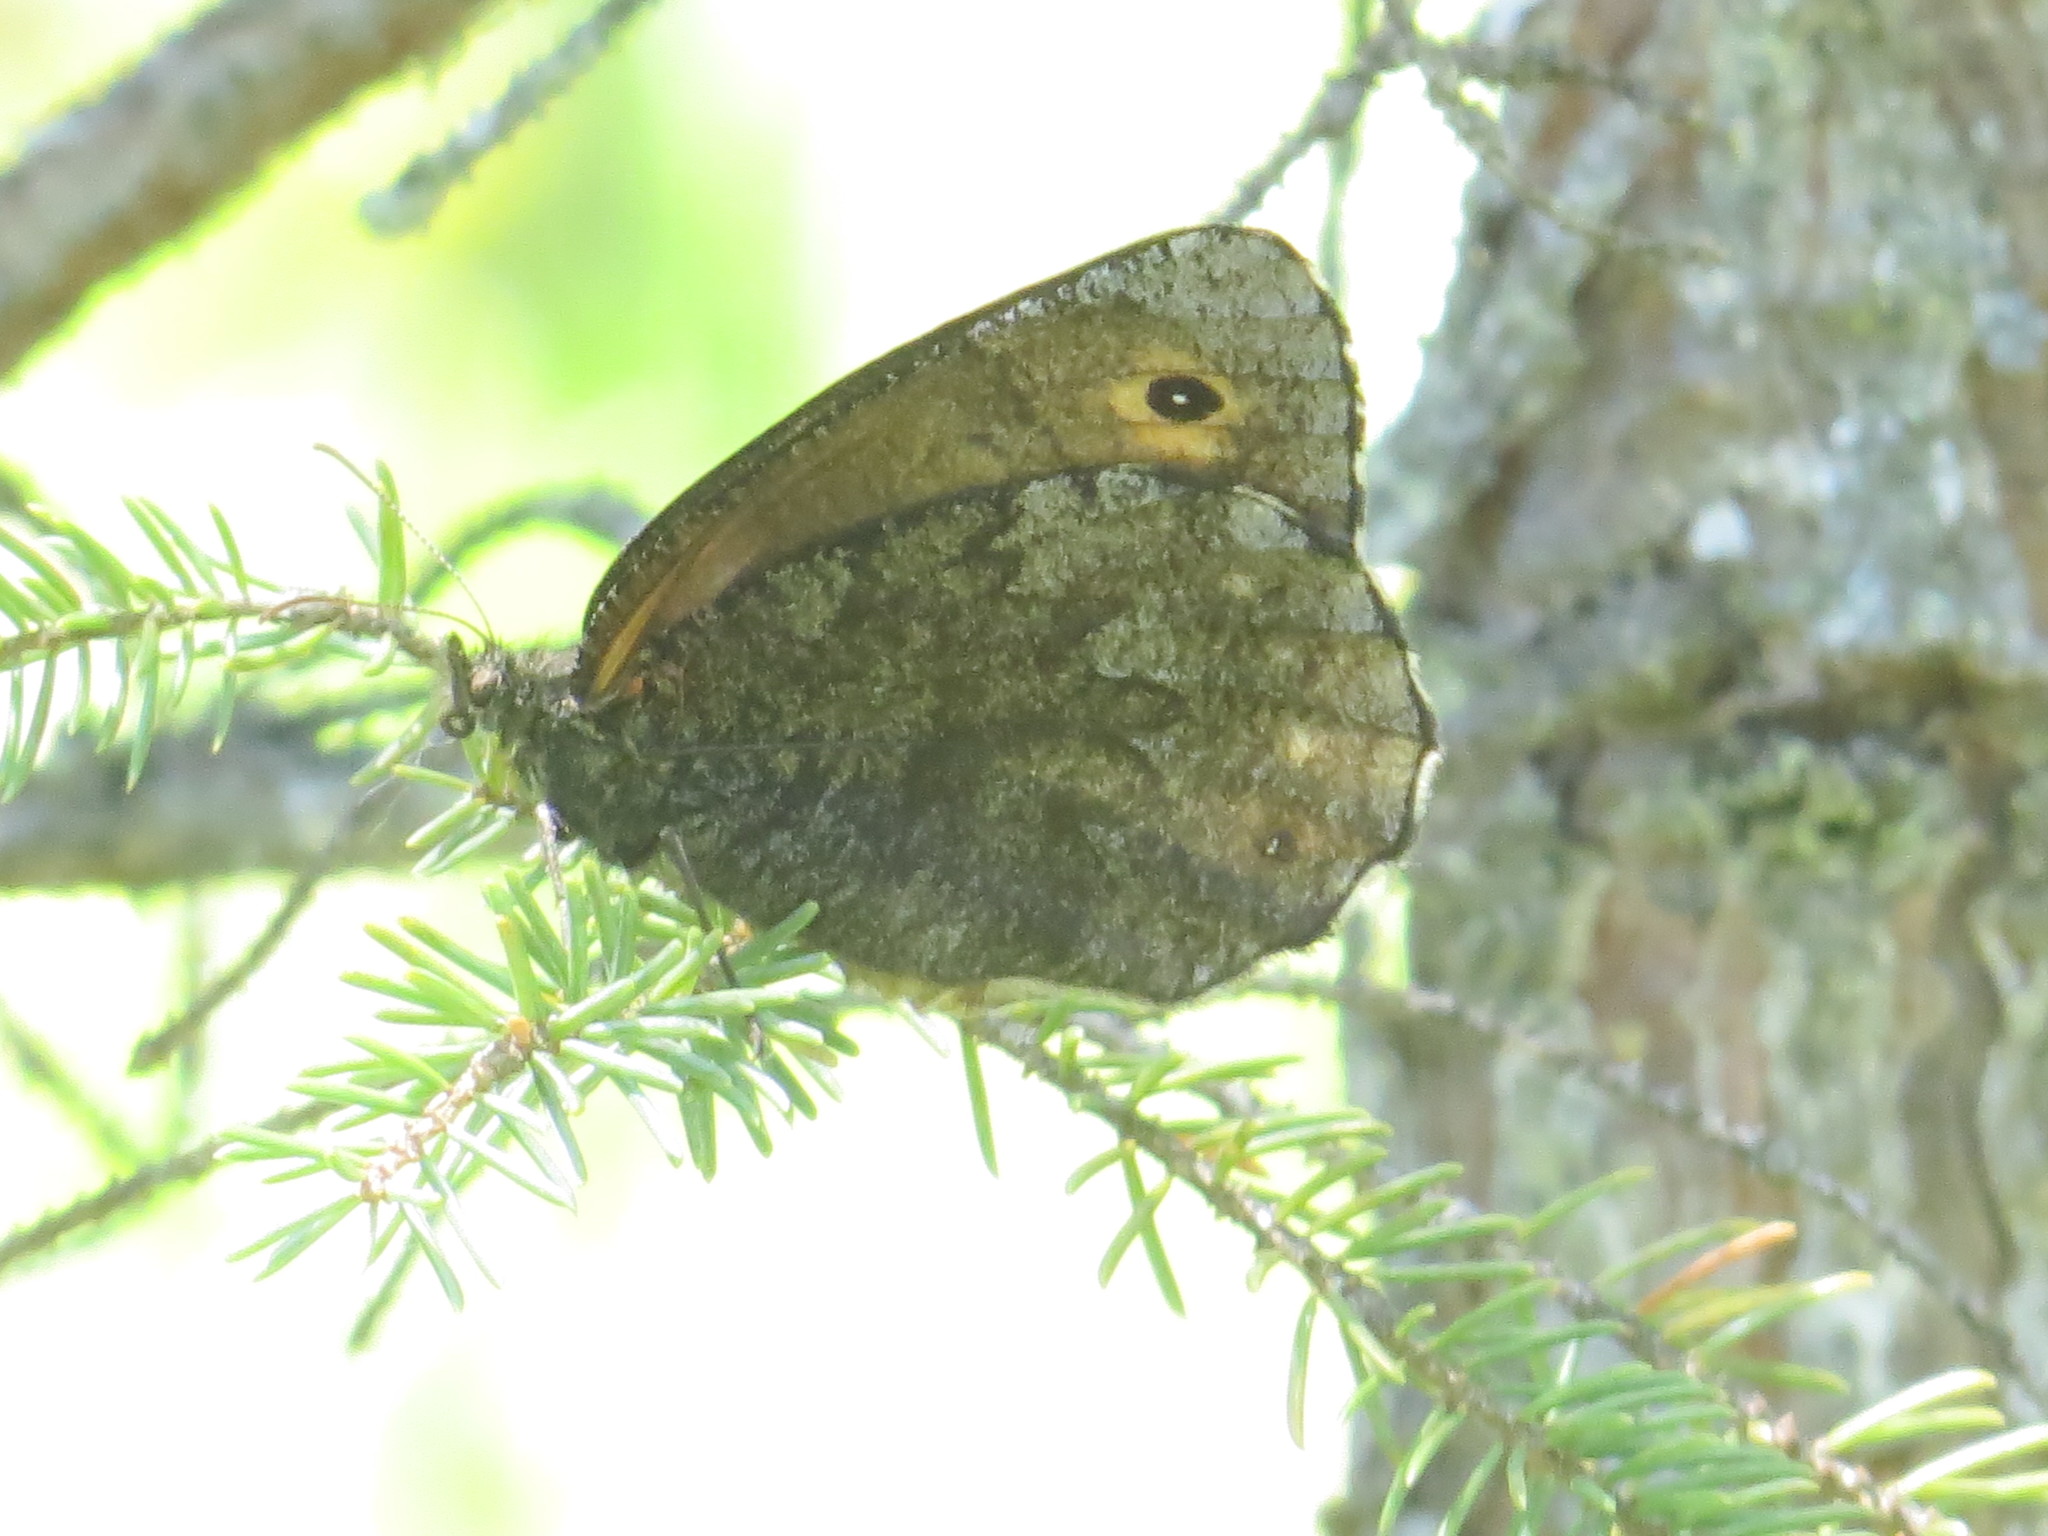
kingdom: Animalia
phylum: Arthropoda
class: Insecta
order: Lepidoptera
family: Nymphalidae
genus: Oeneis
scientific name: Oeneis jutta
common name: Baltic grayling
